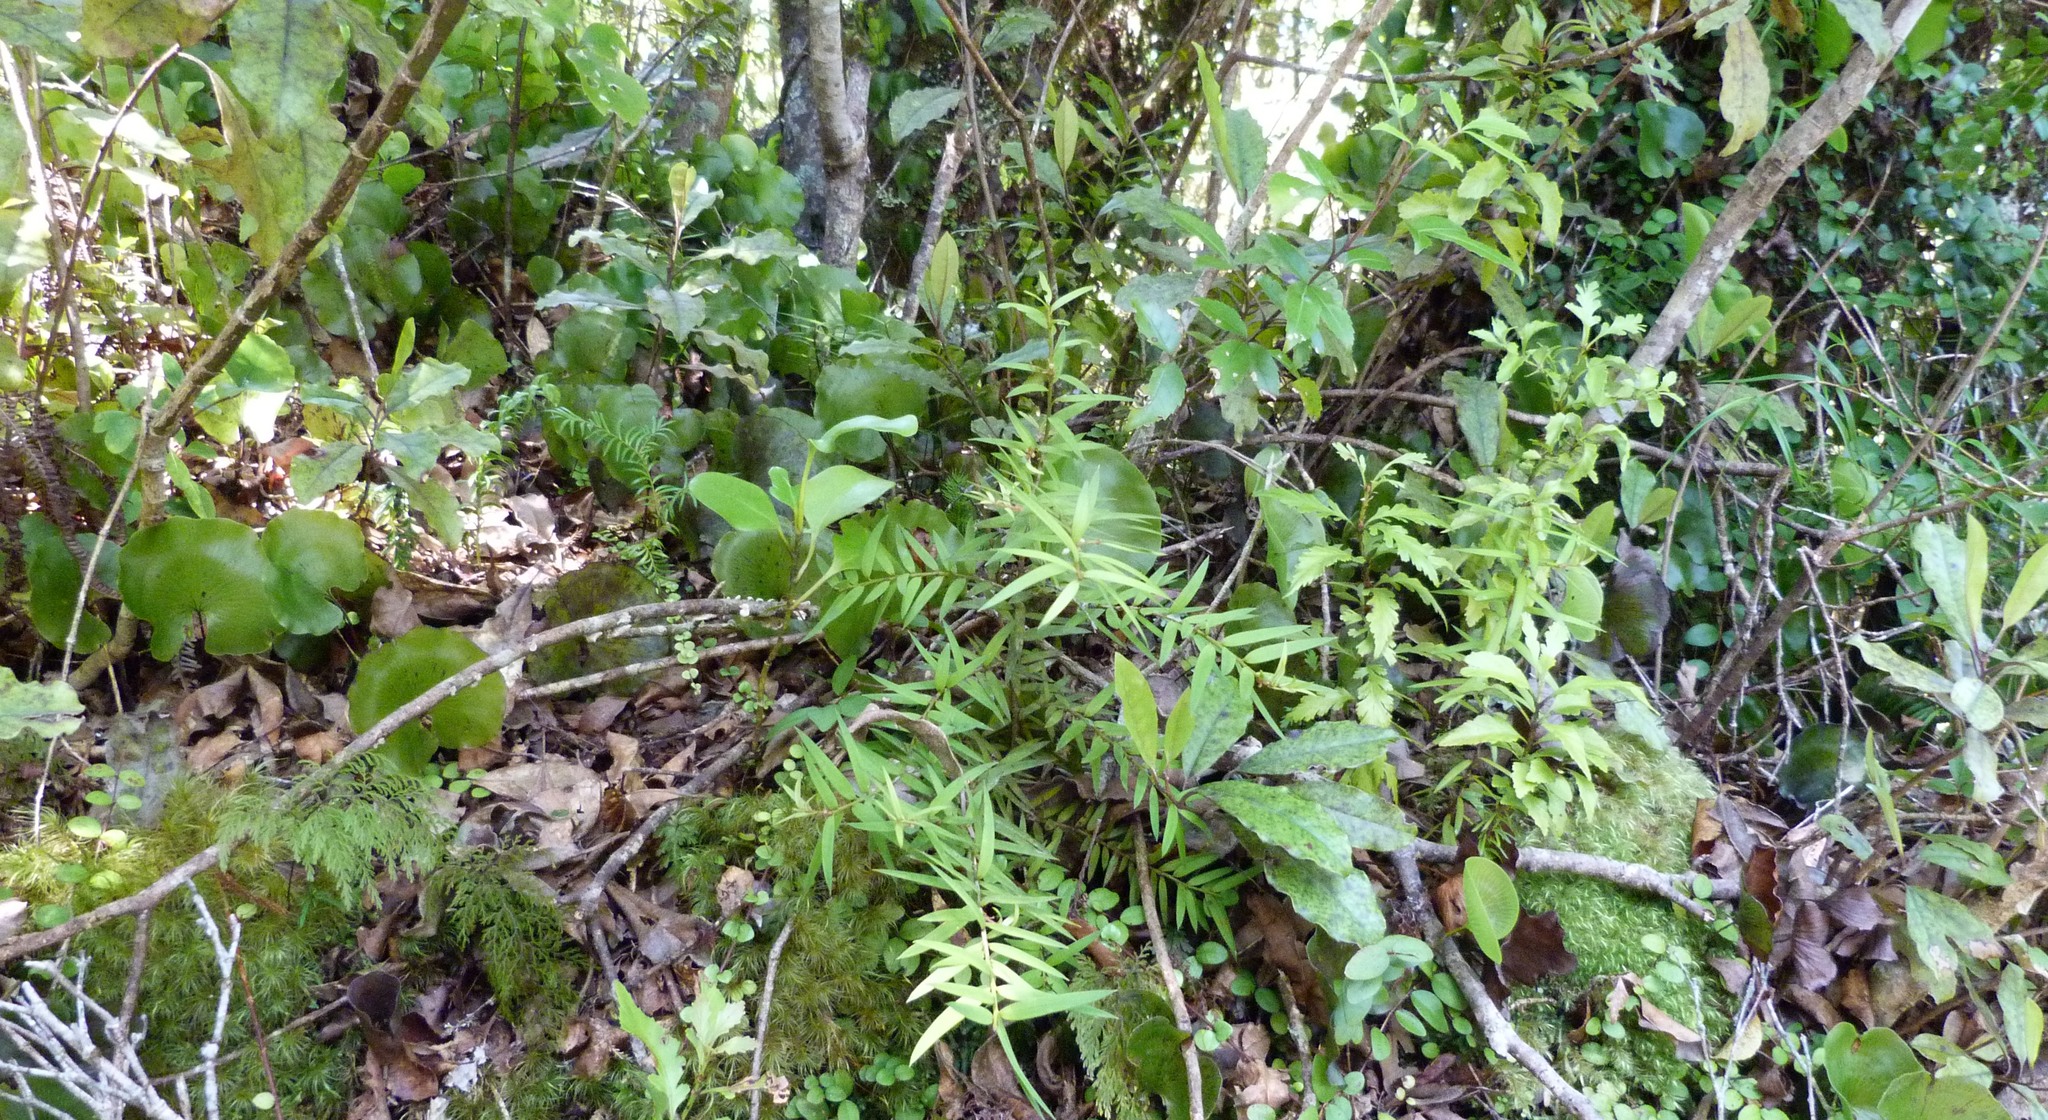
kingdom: Plantae
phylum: Tracheophyta
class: Pinopsida
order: Pinales
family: Podocarpaceae
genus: Podocarpus
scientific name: Podocarpus totara
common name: Totara
